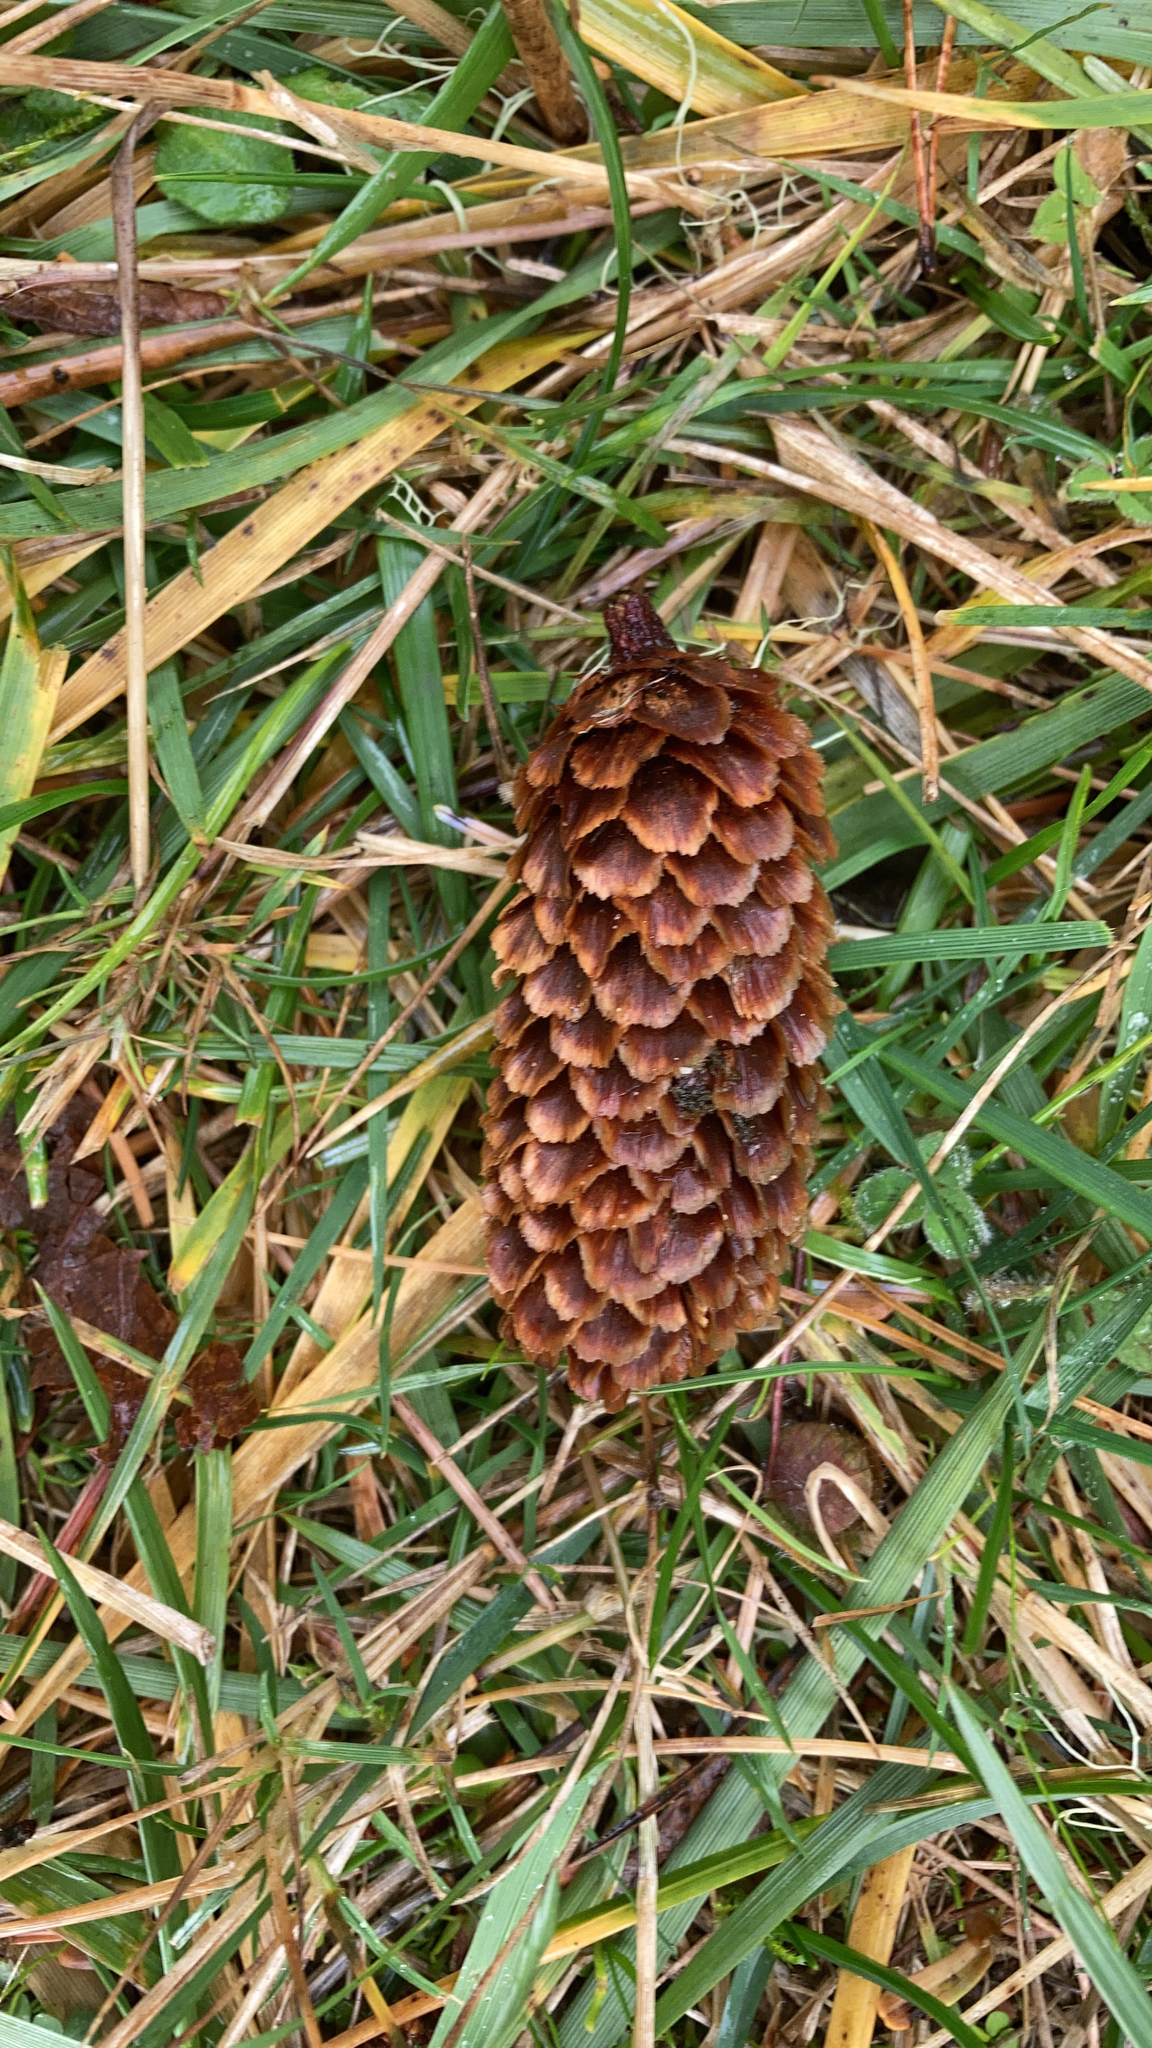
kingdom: Plantae
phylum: Tracheophyta
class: Pinopsida
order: Pinales
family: Pinaceae
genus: Picea
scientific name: Picea sitchensis
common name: Sitka spruce
